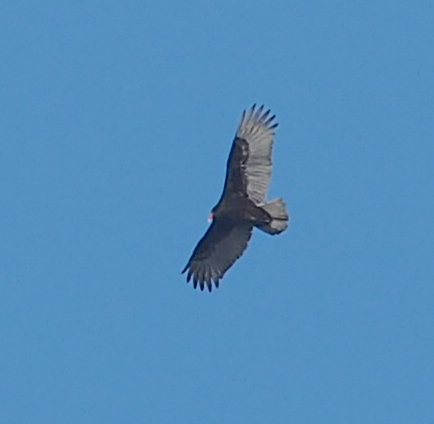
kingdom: Animalia
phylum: Chordata
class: Aves
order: Accipitriformes
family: Cathartidae
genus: Cathartes
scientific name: Cathartes aura
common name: Turkey vulture
